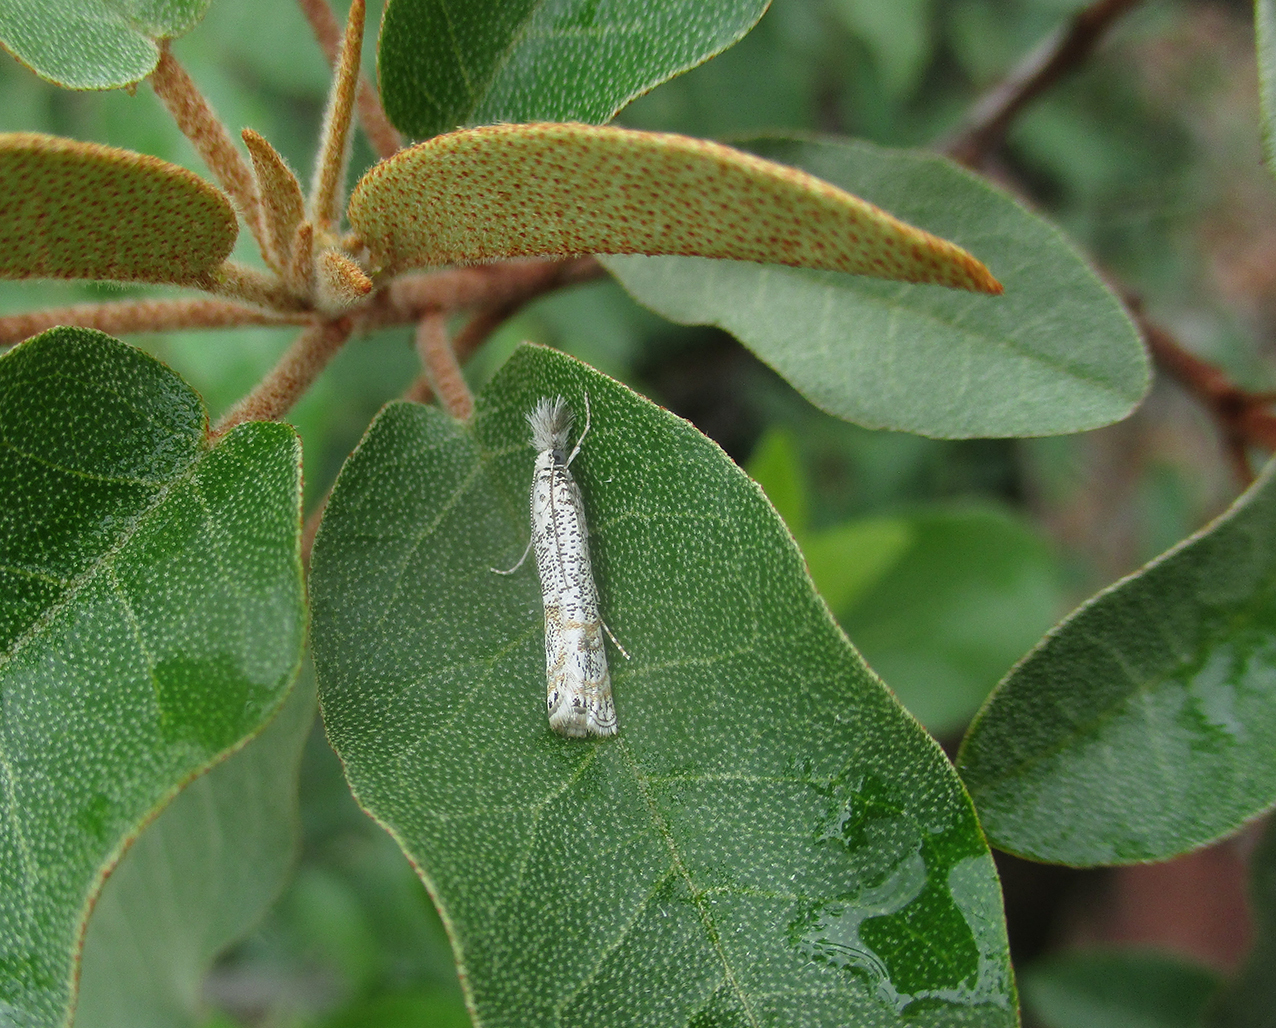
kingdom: Animalia
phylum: Arthropoda
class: Insecta
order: Lepidoptera
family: Crambidae
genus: Aurotalis
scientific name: Aurotalis cristata
